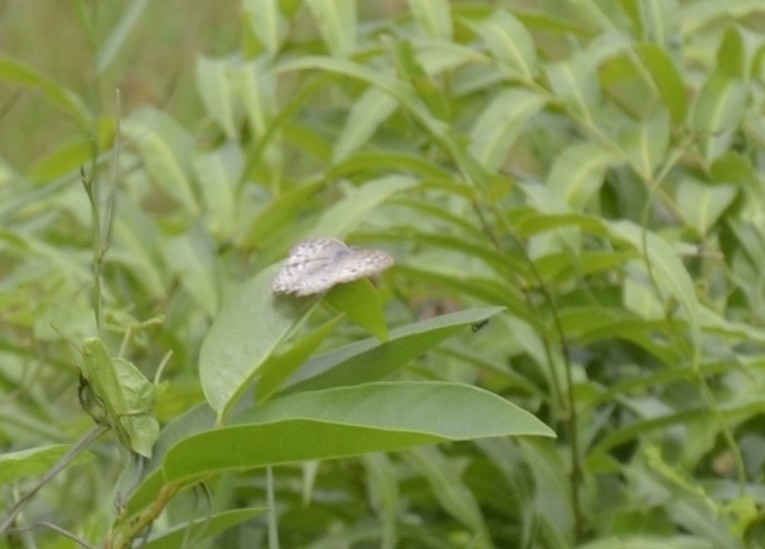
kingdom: Animalia
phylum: Arthropoda
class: Insecta
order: Lepidoptera
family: Nymphalidae
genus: Junonia
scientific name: Junonia atlites
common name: Grey pansy
